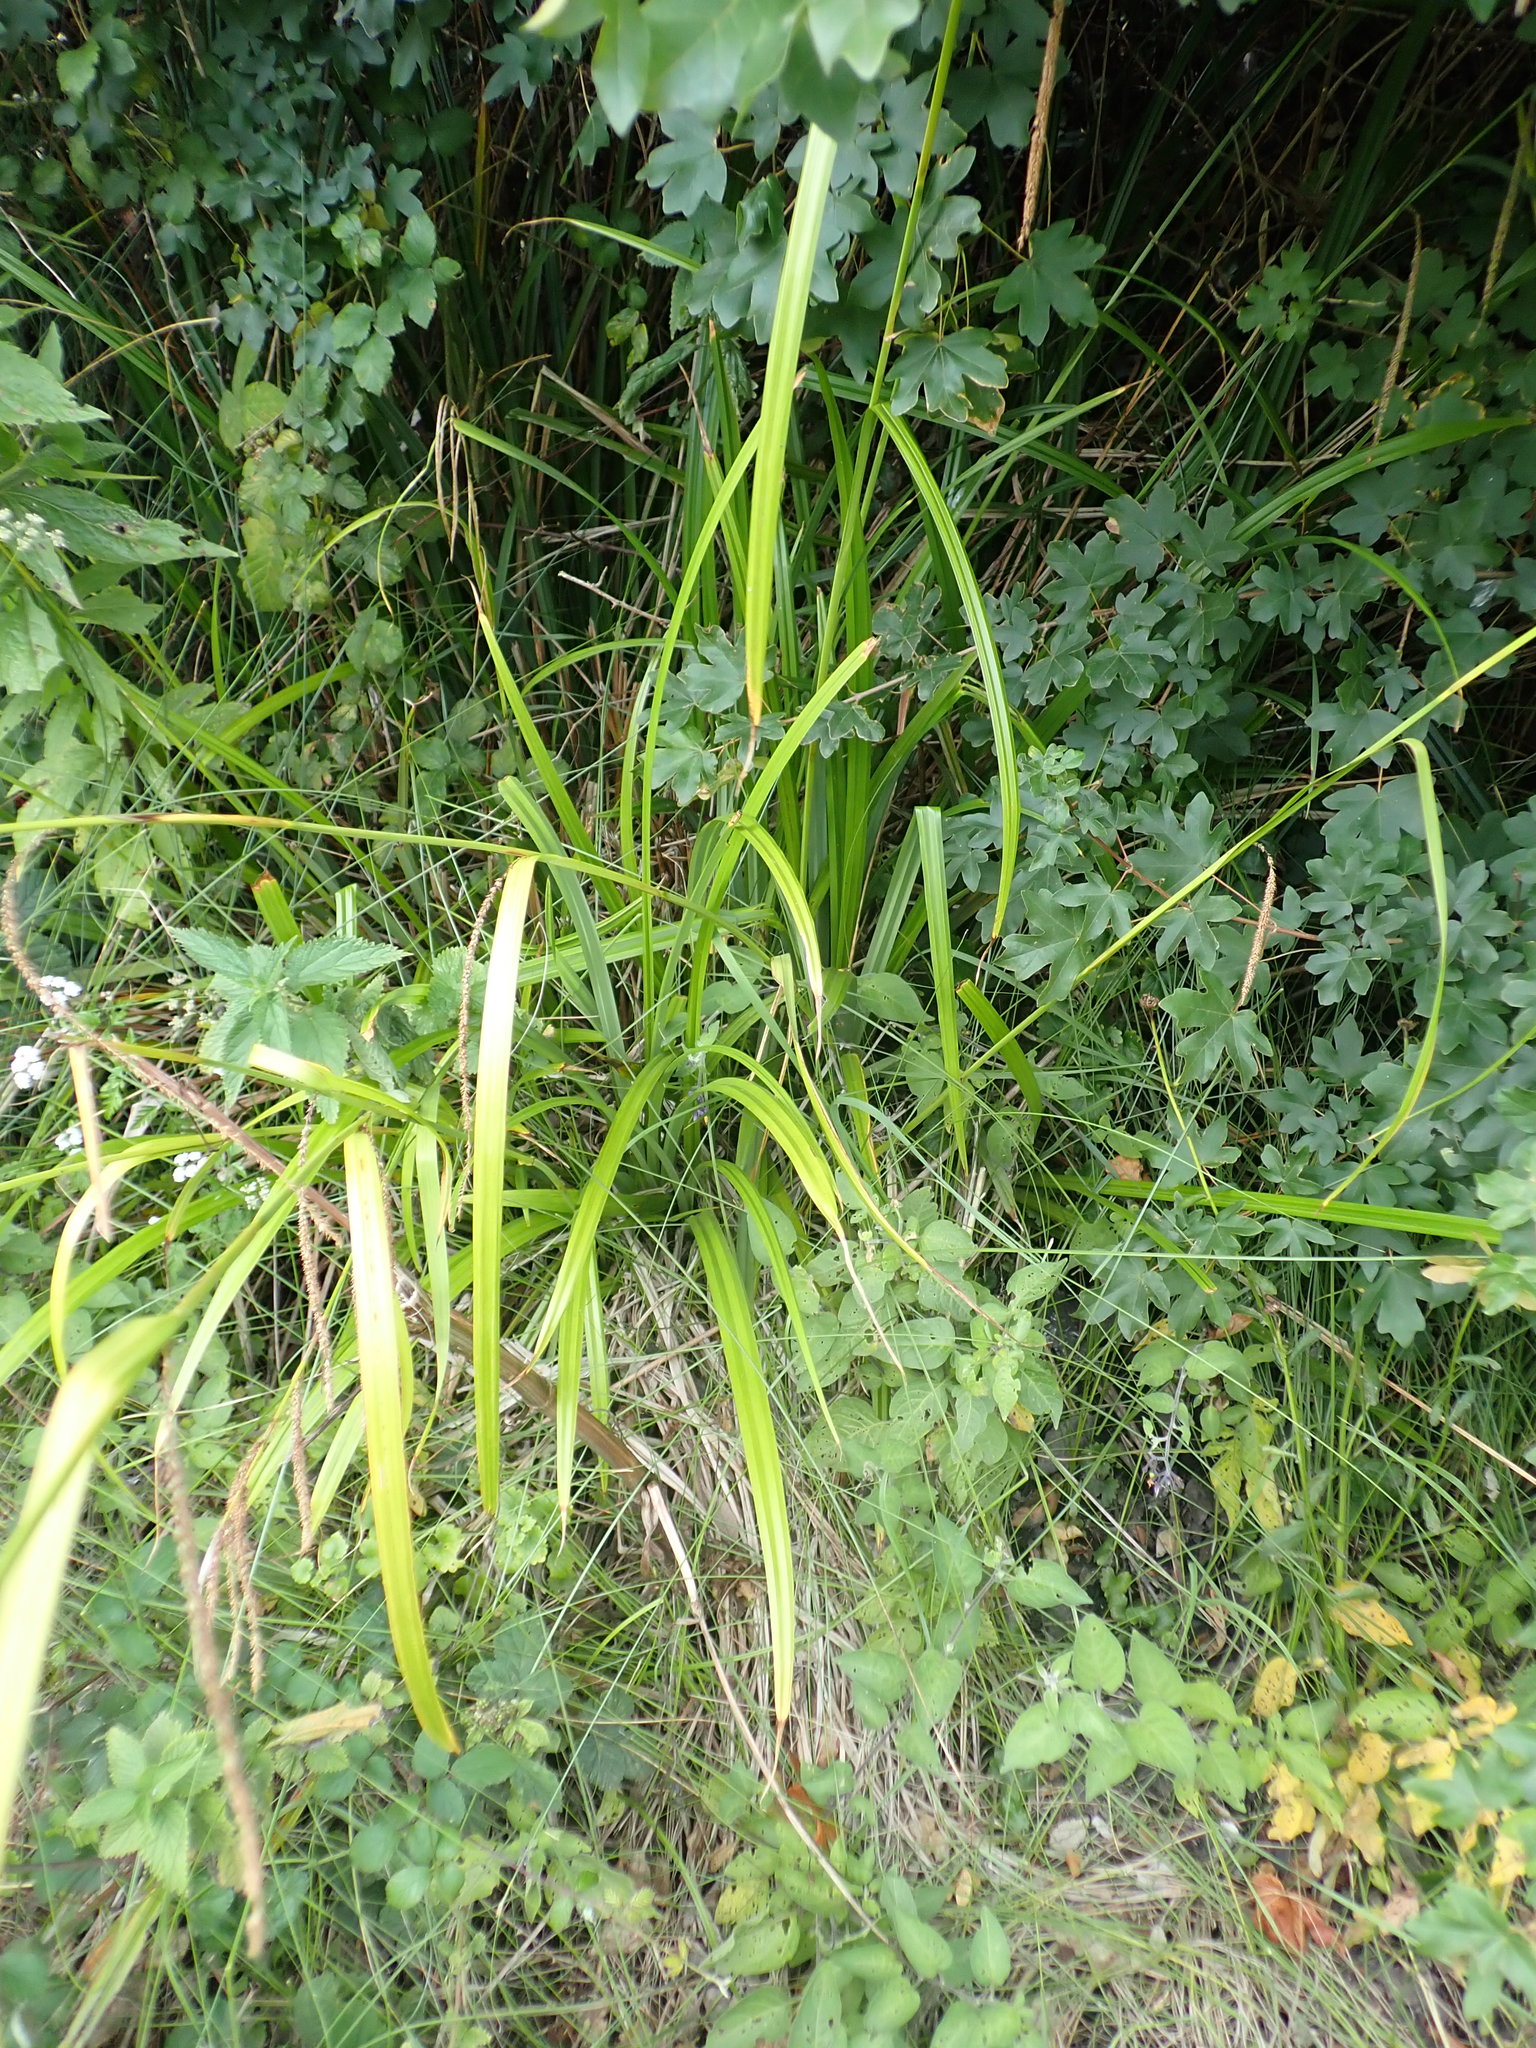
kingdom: Plantae
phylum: Tracheophyta
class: Liliopsida
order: Poales
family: Cyperaceae
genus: Carex
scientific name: Carex pendula
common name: Pendulous sedge
